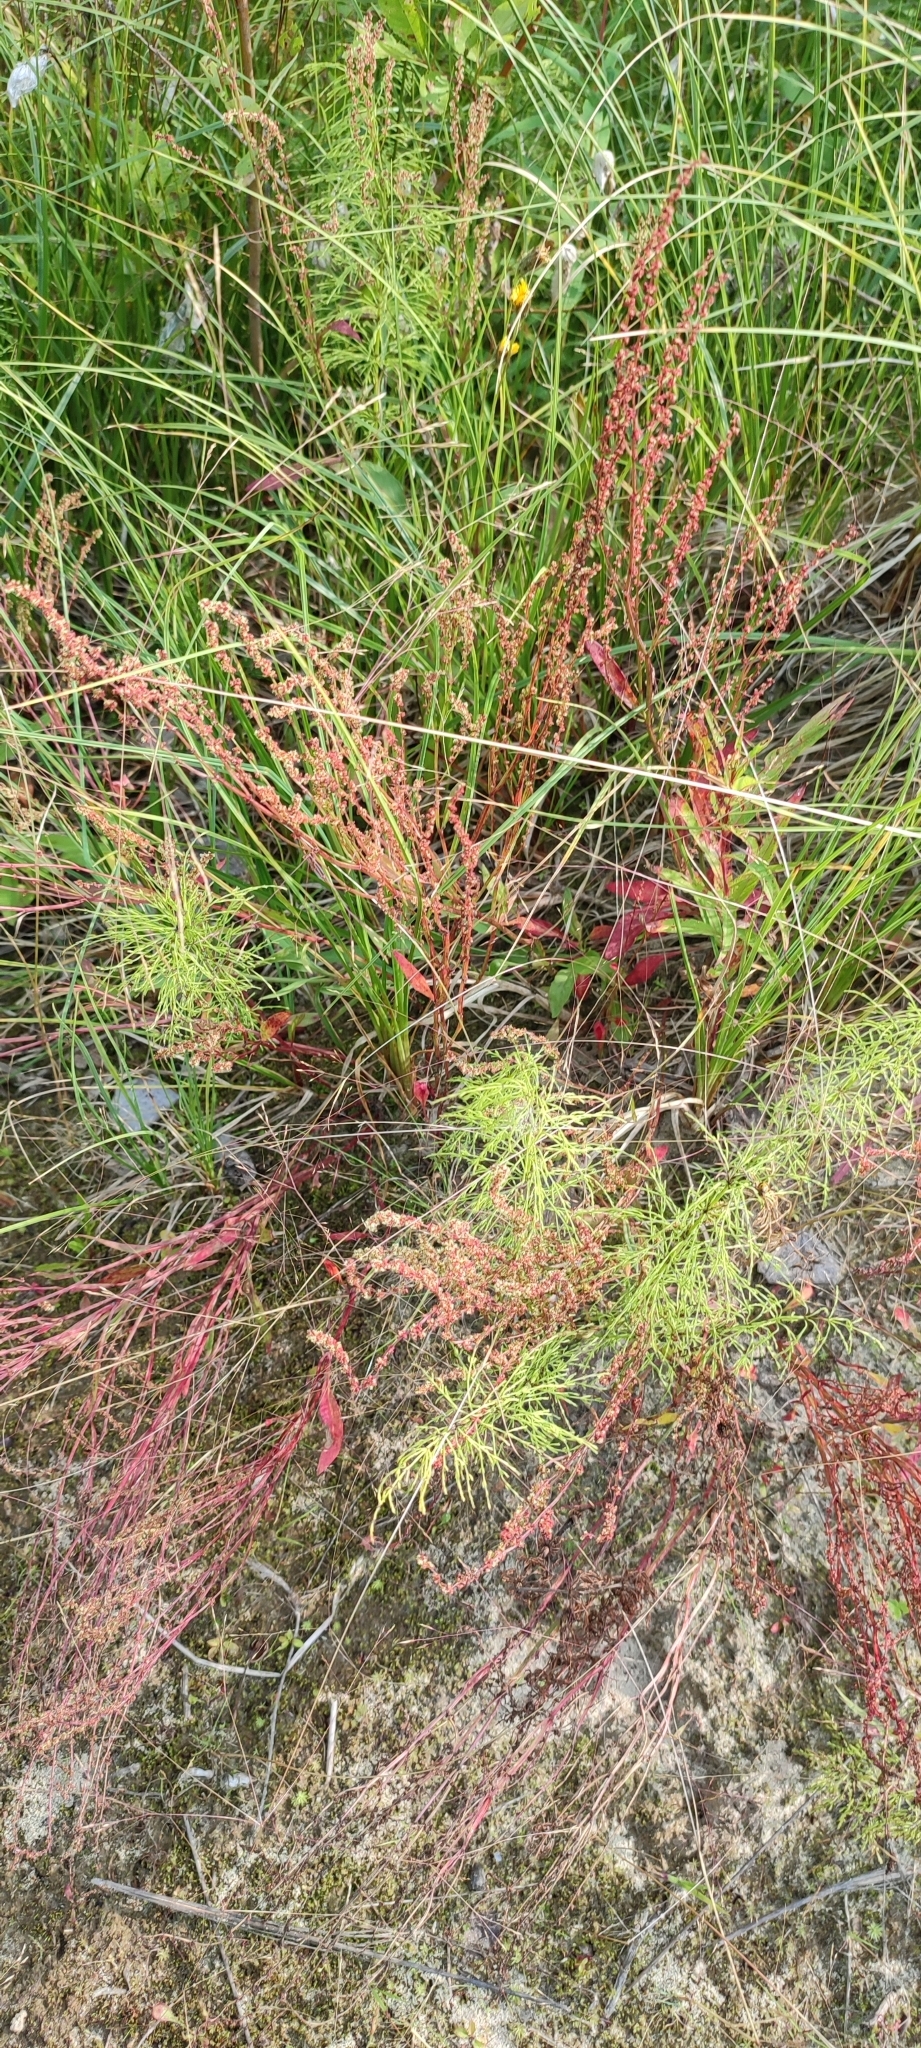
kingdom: Plantae
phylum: Tracheophyta
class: Magnoliopsida
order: Caryophyllales
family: Polygonaceae
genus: Rumex
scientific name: Rumex acetosella
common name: Common sheep sorrel
